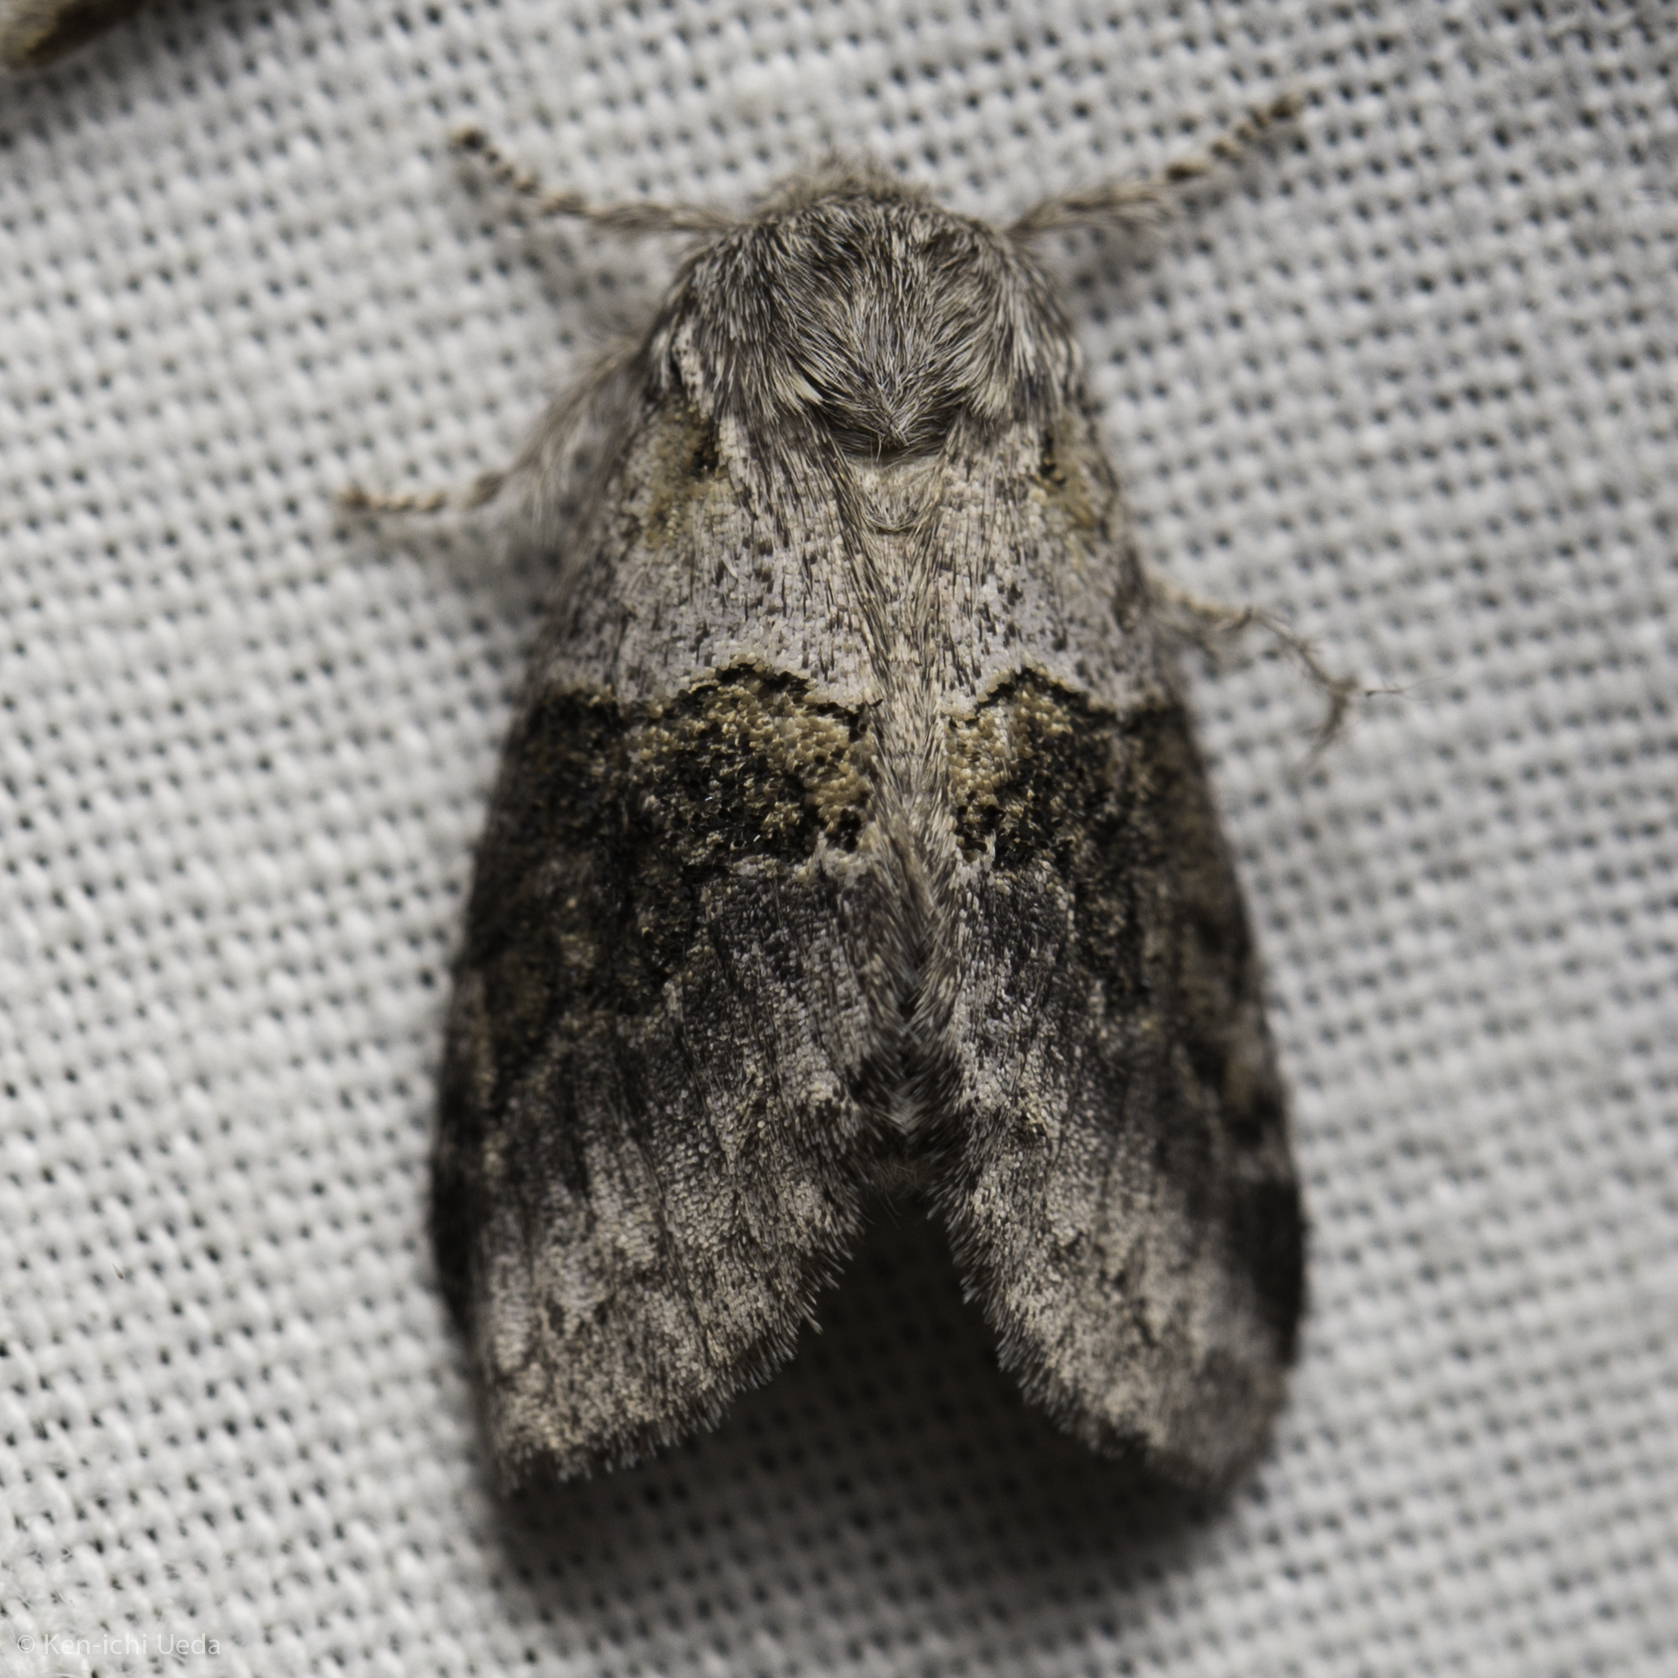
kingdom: Animalia
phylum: Arthropoda
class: Insecta
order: Lepidoptera
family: Notodontidae
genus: Gluphisia
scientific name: Gluphisia septentrionis
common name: Common gluphisia
